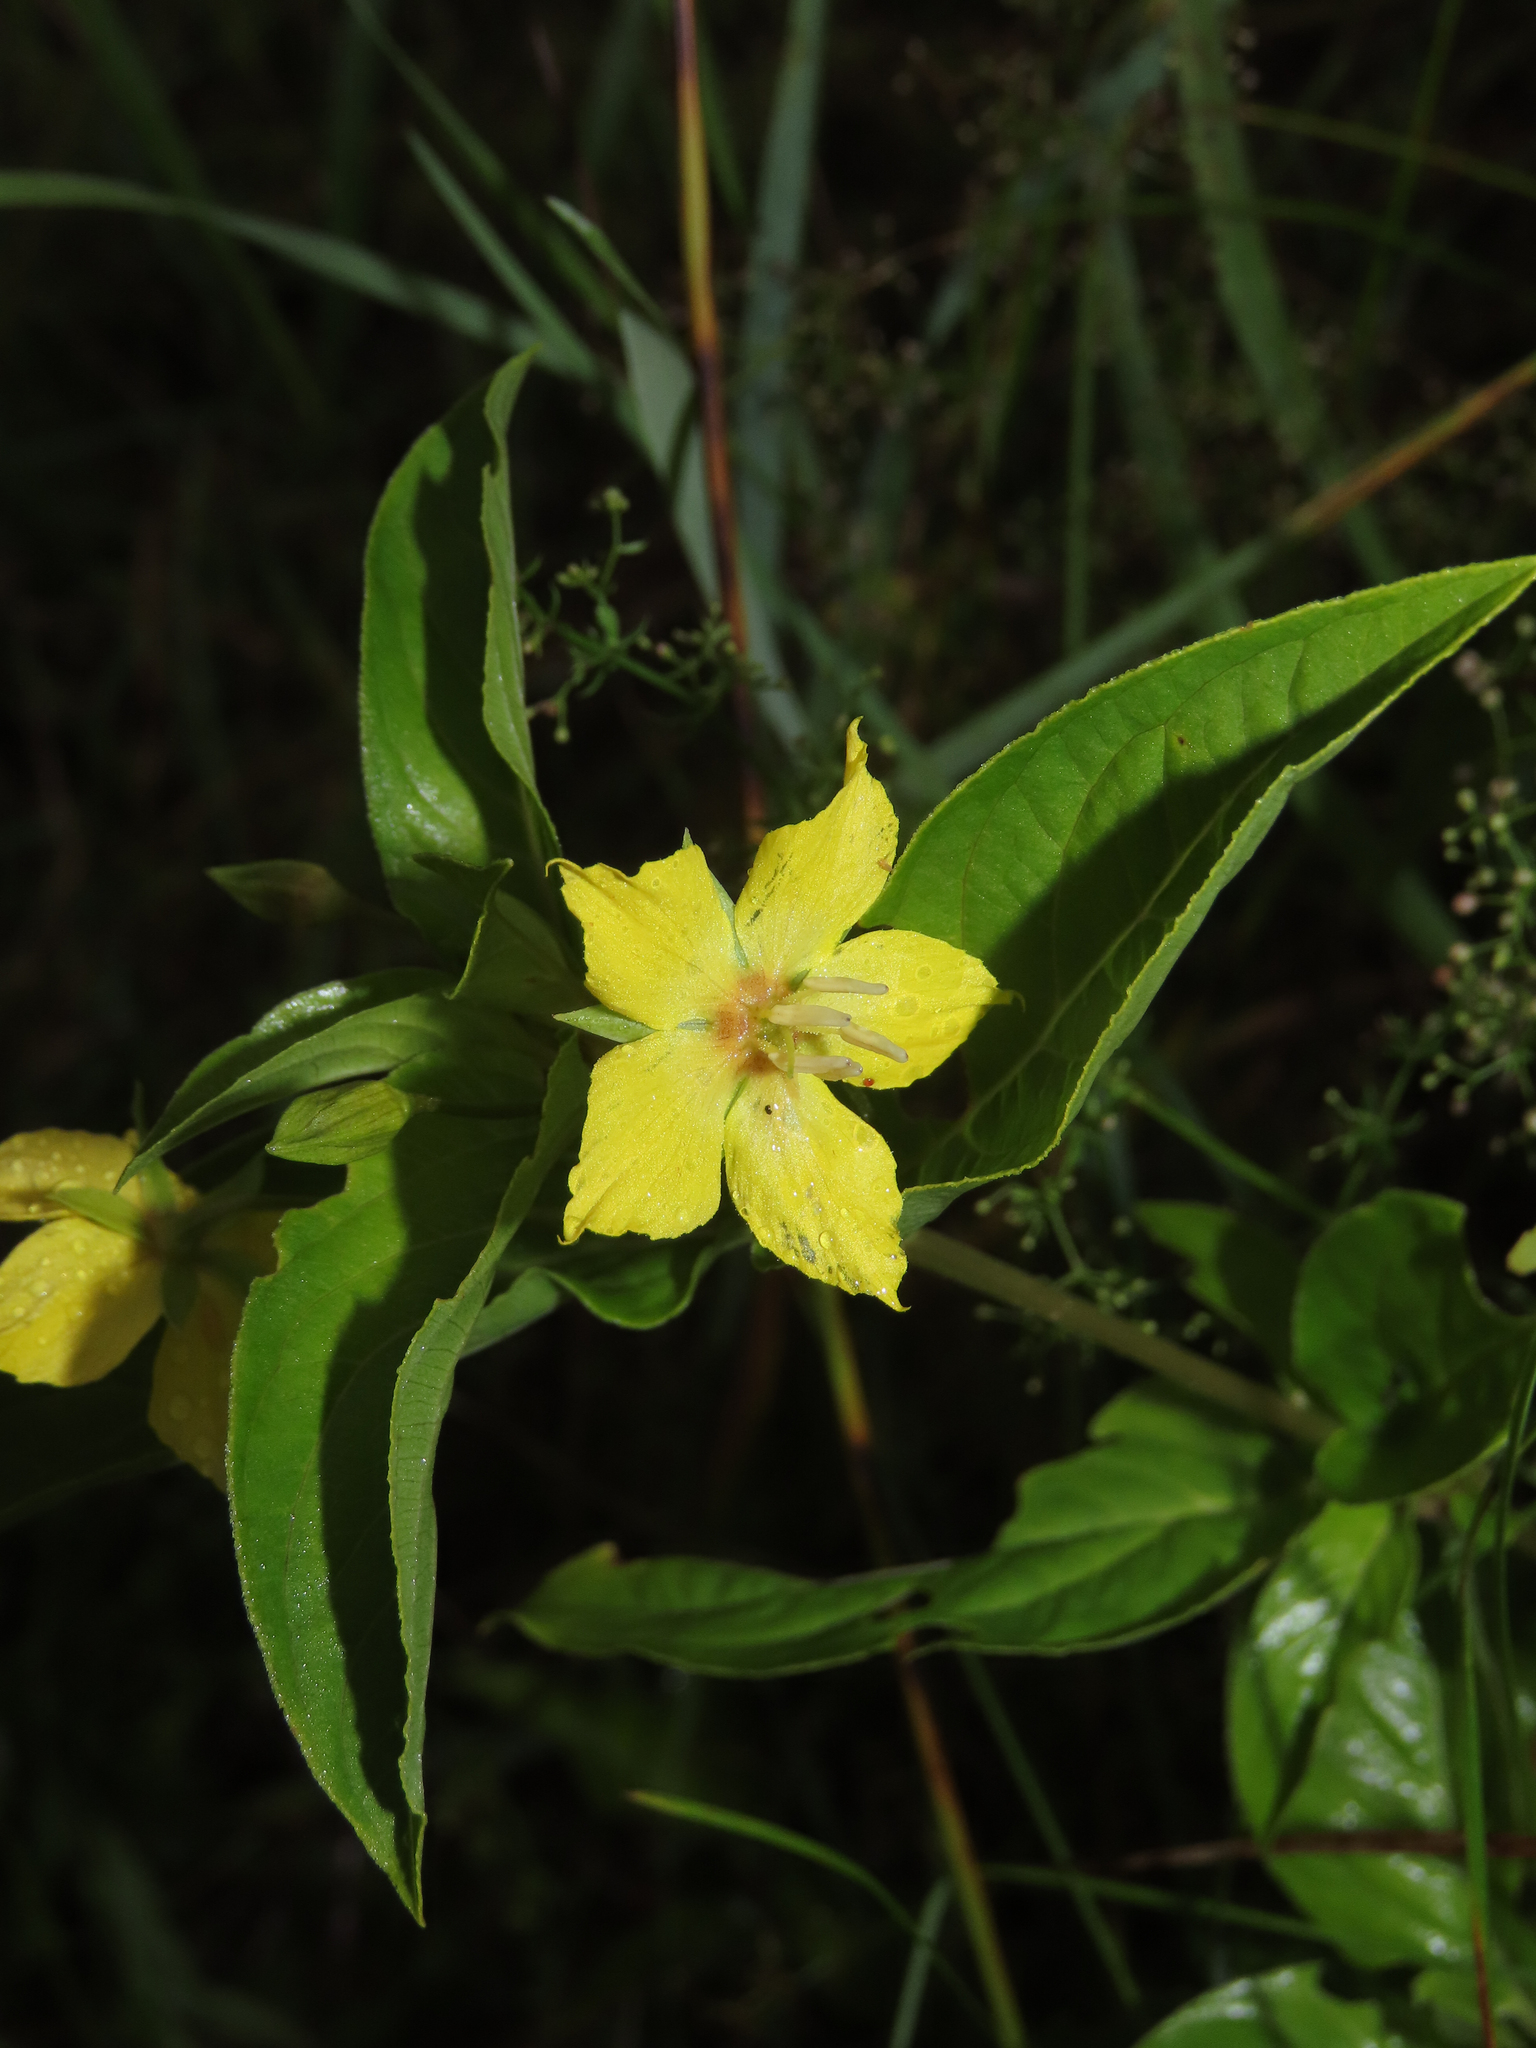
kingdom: Plantae
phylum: Tracheophyta
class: Magnoliopsida
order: Ericales
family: Primulaceae
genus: Lysimachia
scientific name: Lysimachia ciliata
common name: Fringed loosestrife
